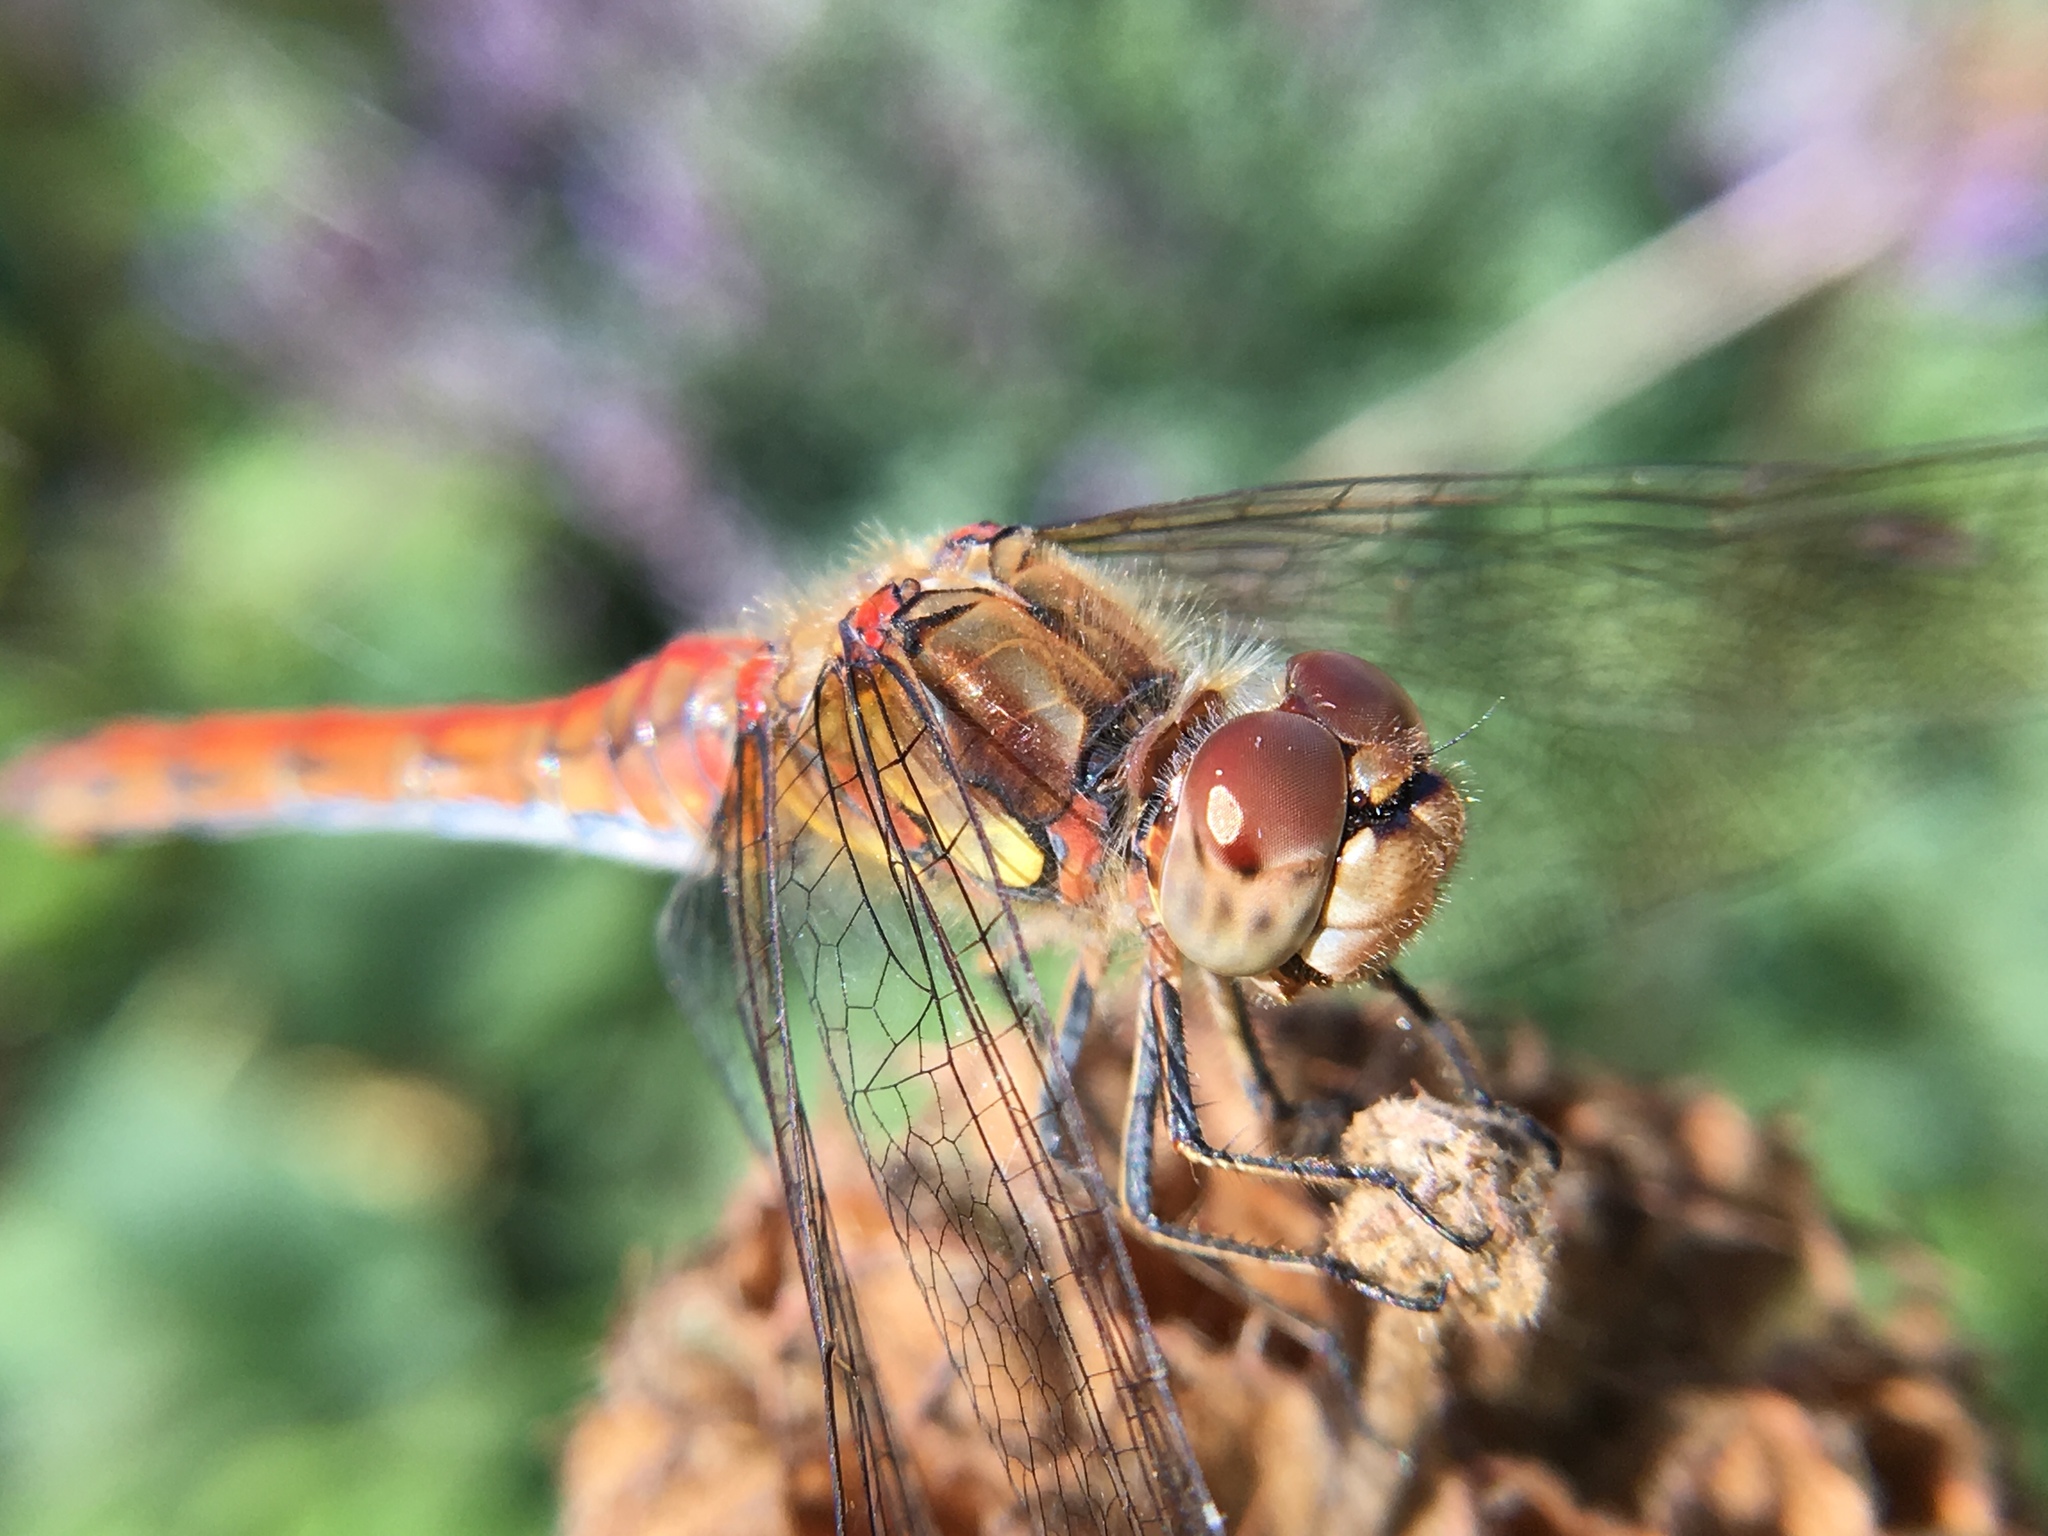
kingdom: Animalia
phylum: Arthropoda
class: Insecta
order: Odonata
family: Libellulidae
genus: Sympetrum
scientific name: Sympetrum striolatum
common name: Common darter
